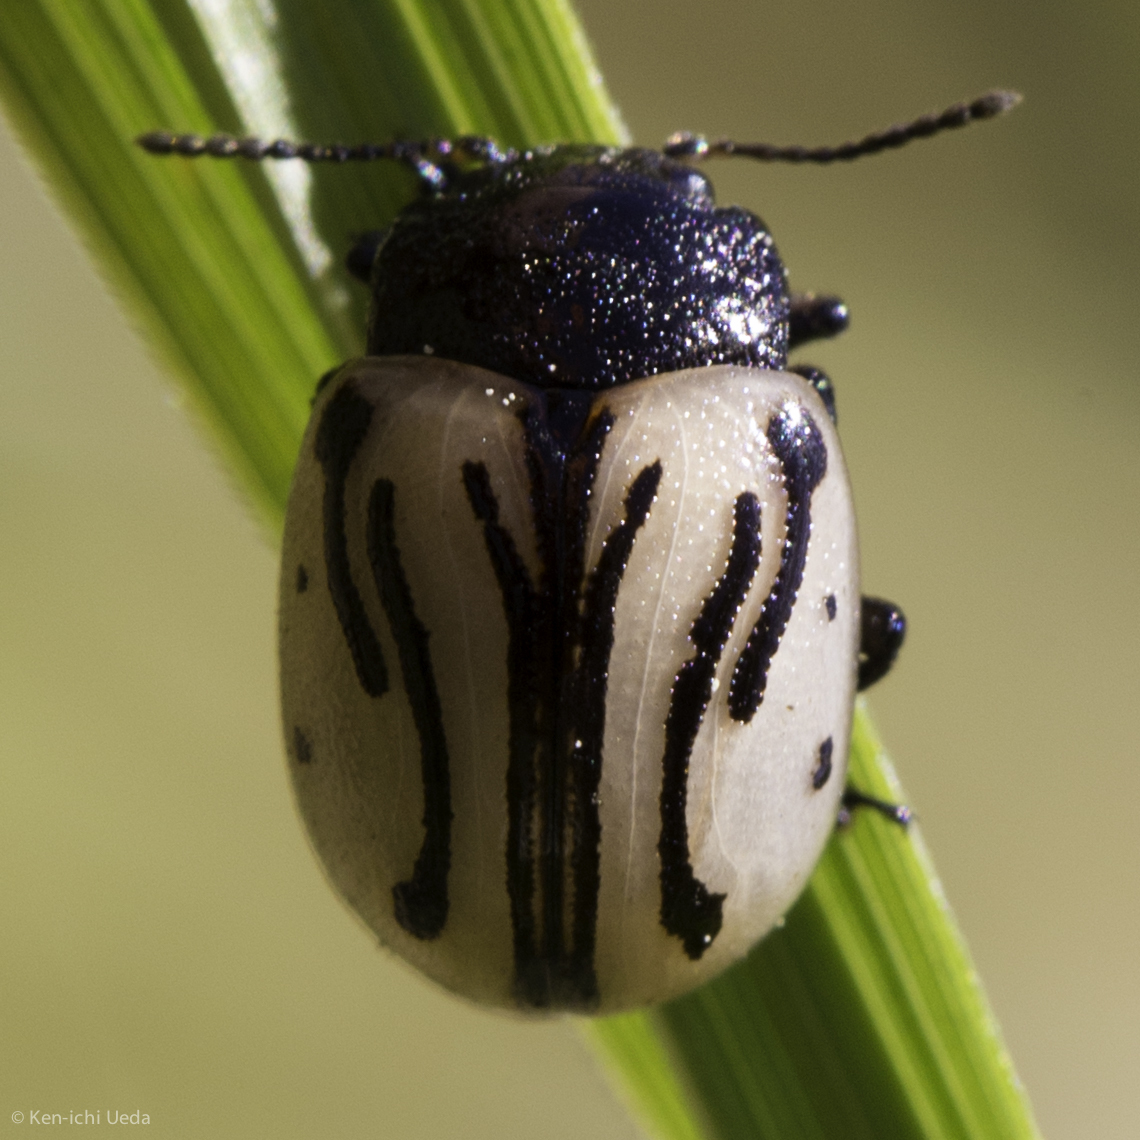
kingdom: Animalia
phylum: Arthropoda
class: Insecta
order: Coleoptera
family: Chrysomelidae
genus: Calligrapha
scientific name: Calligrapha sigmoidea
